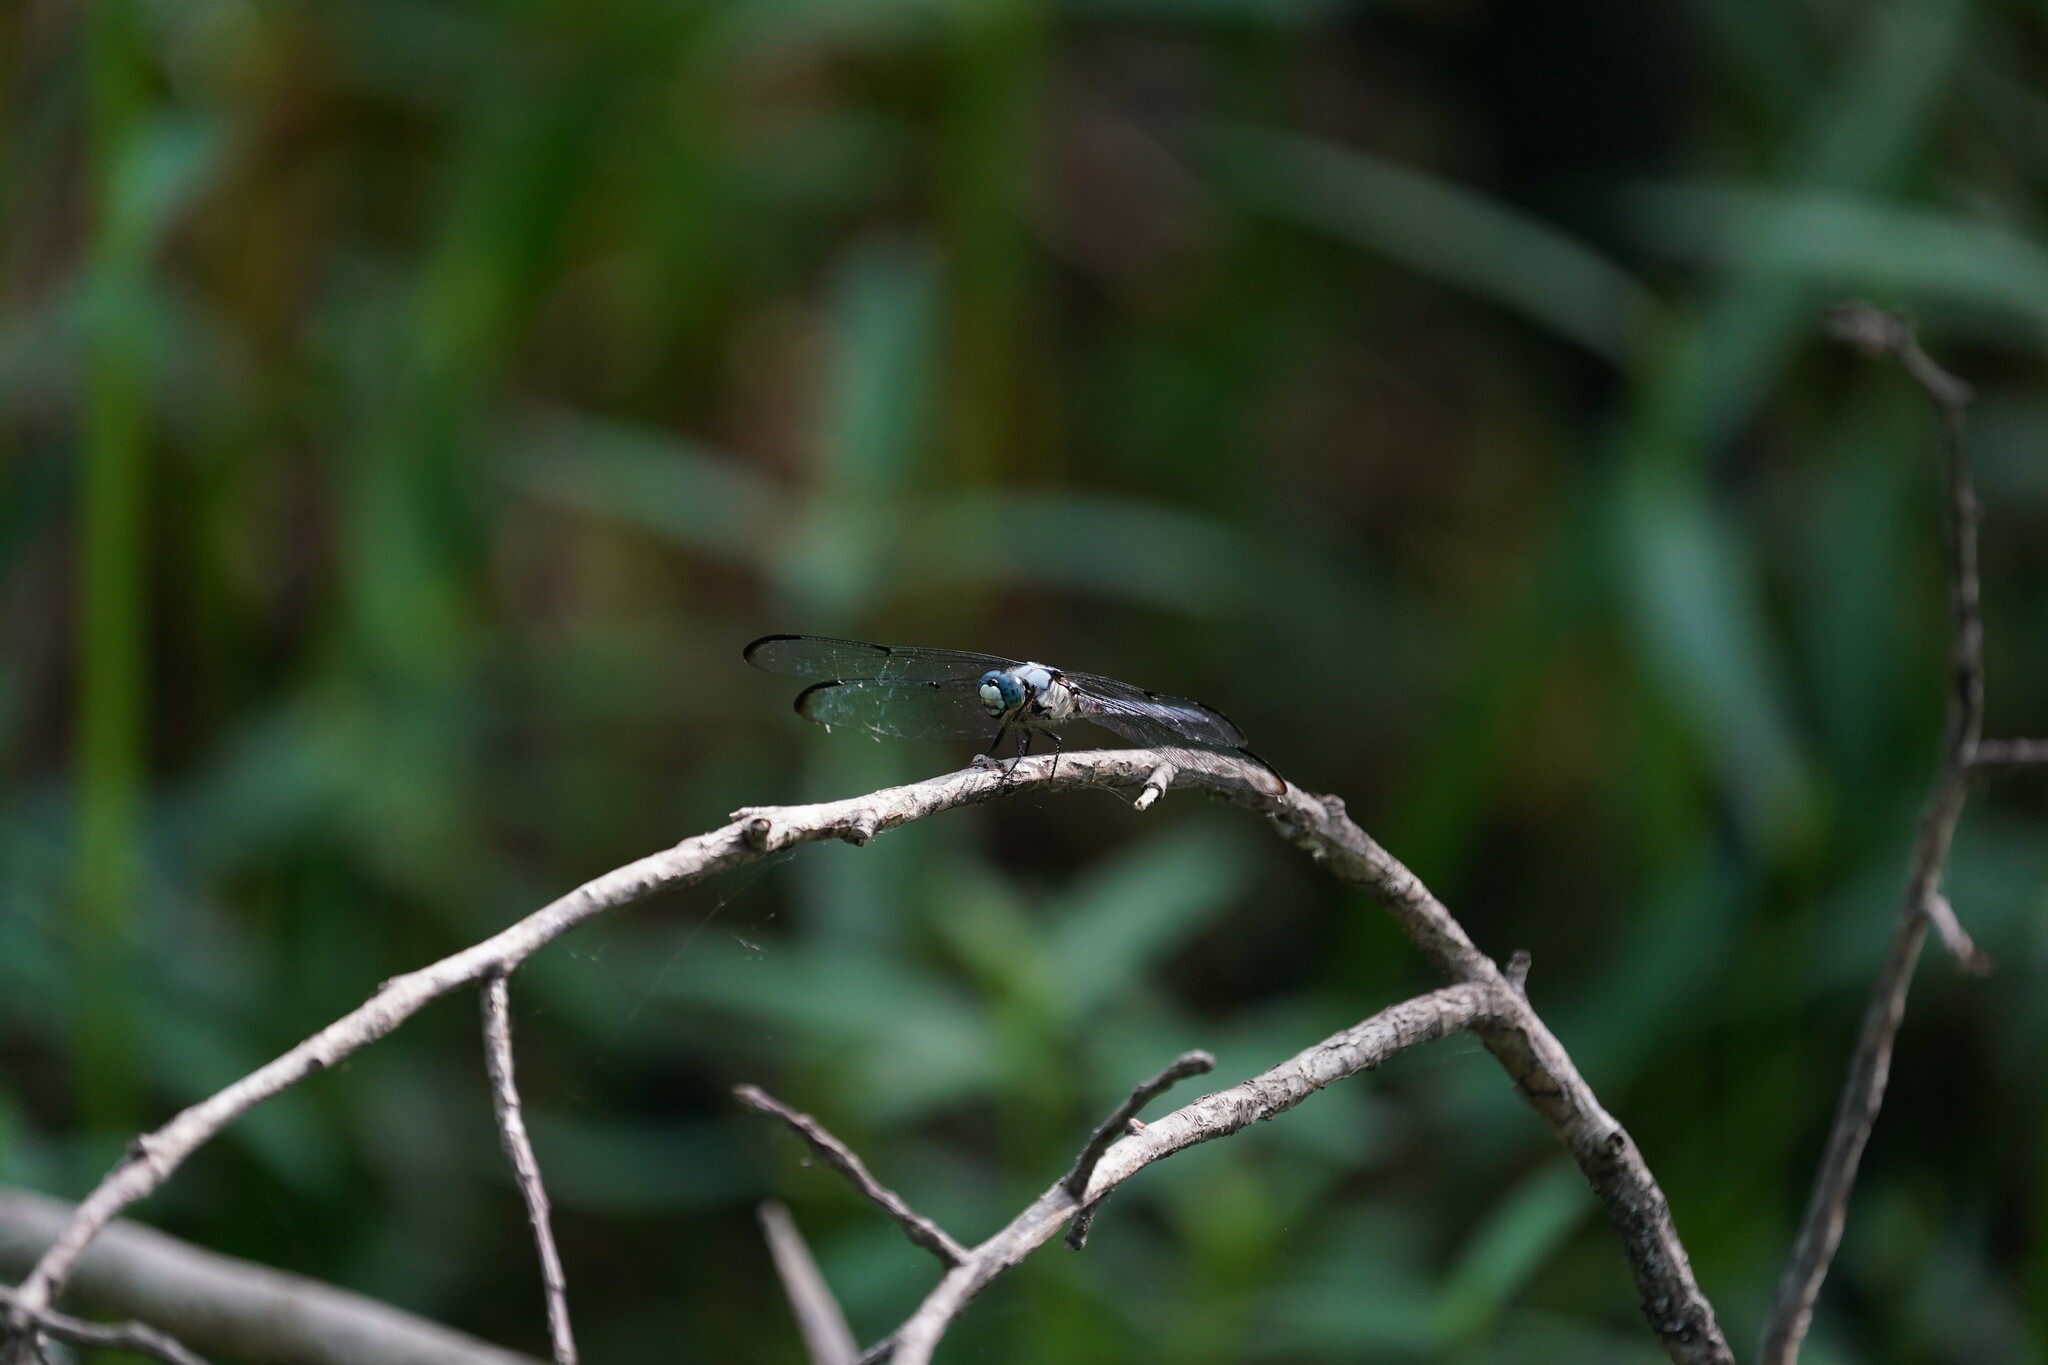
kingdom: Animalia
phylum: Arthropoda
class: Insecta
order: Odonata
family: Libellulidae
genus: Libellula
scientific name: Libellula vibrans
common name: Great blue skimmer
